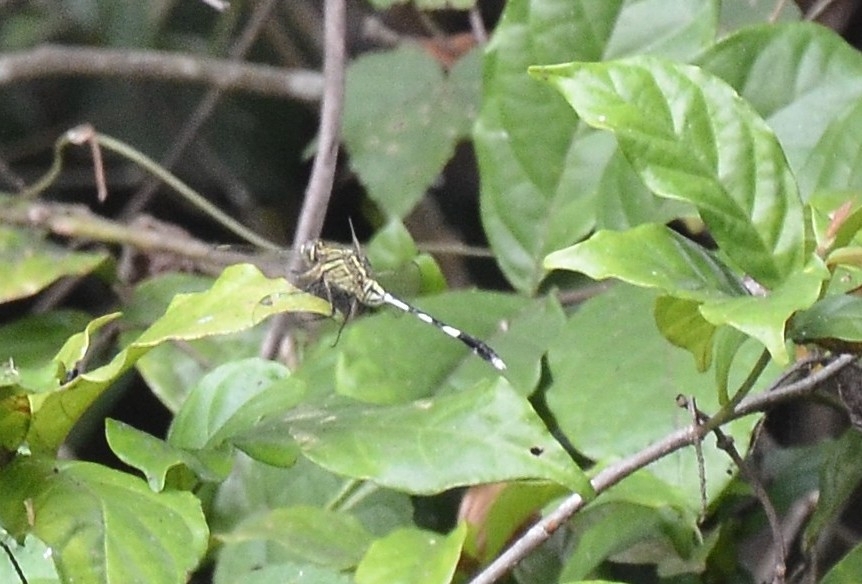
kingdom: Animalia
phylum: Arthropoda
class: Insecta
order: Odonata
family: Libellulidae
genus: Orthetrum
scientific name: Orthetrum sabina
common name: Slender skimmer
